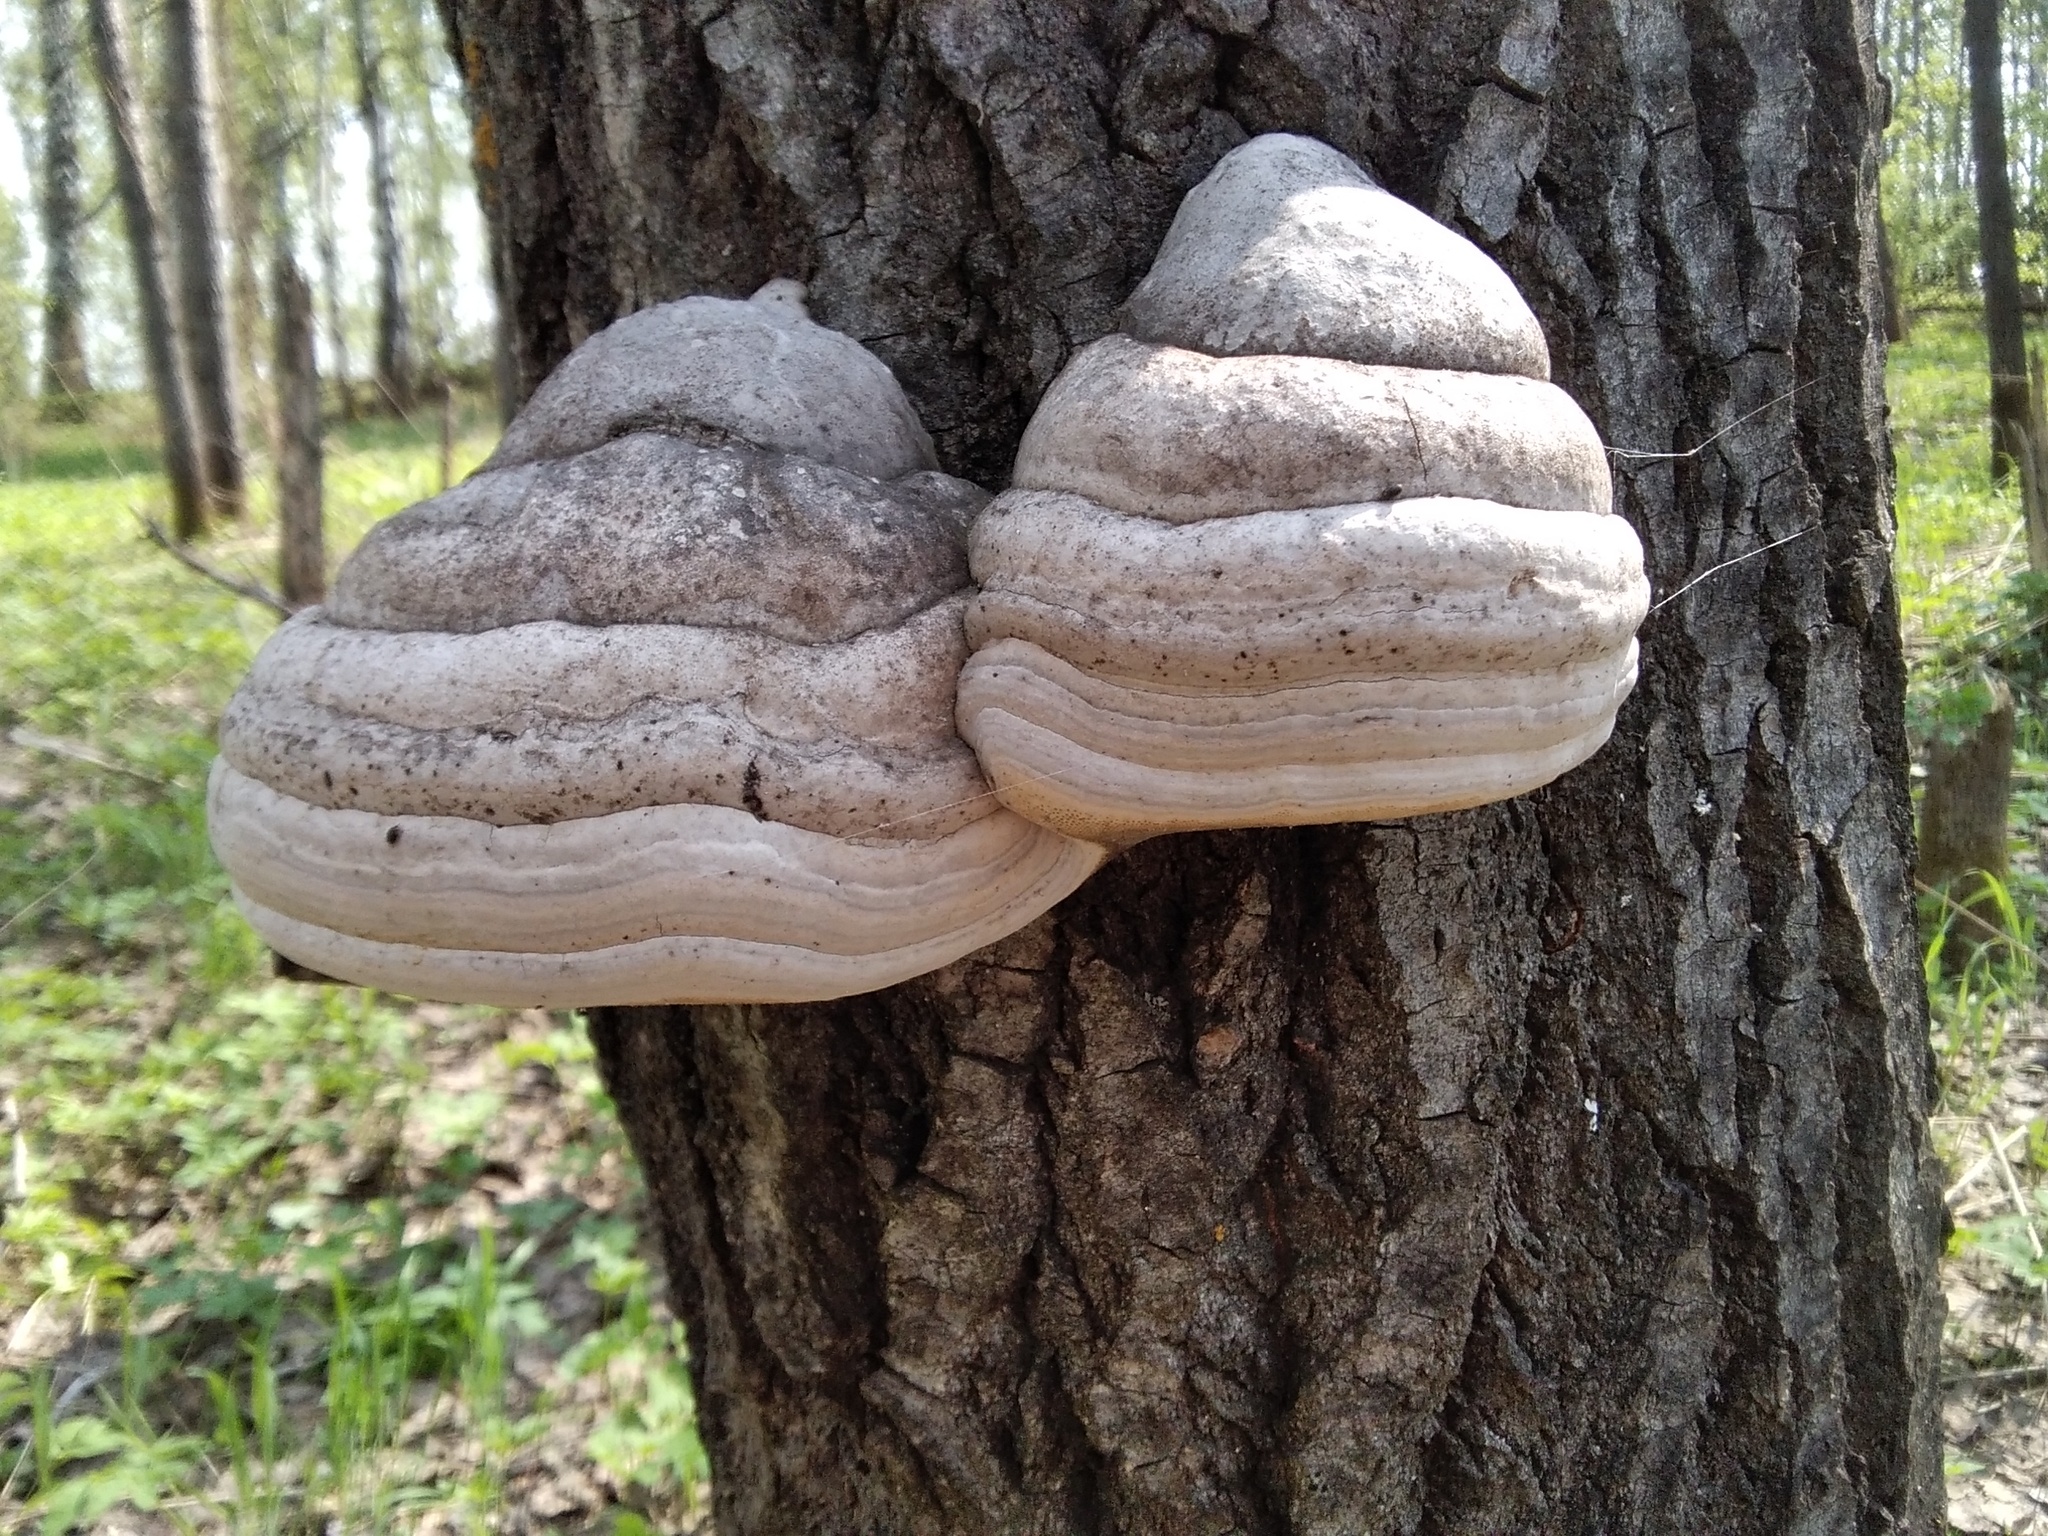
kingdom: Fungi
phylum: Basidiomycota
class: Agaricomycetes
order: Polyporales
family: Polyporaceae
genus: Fomes
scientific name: Fomes fomentarius
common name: Hoof fungus
